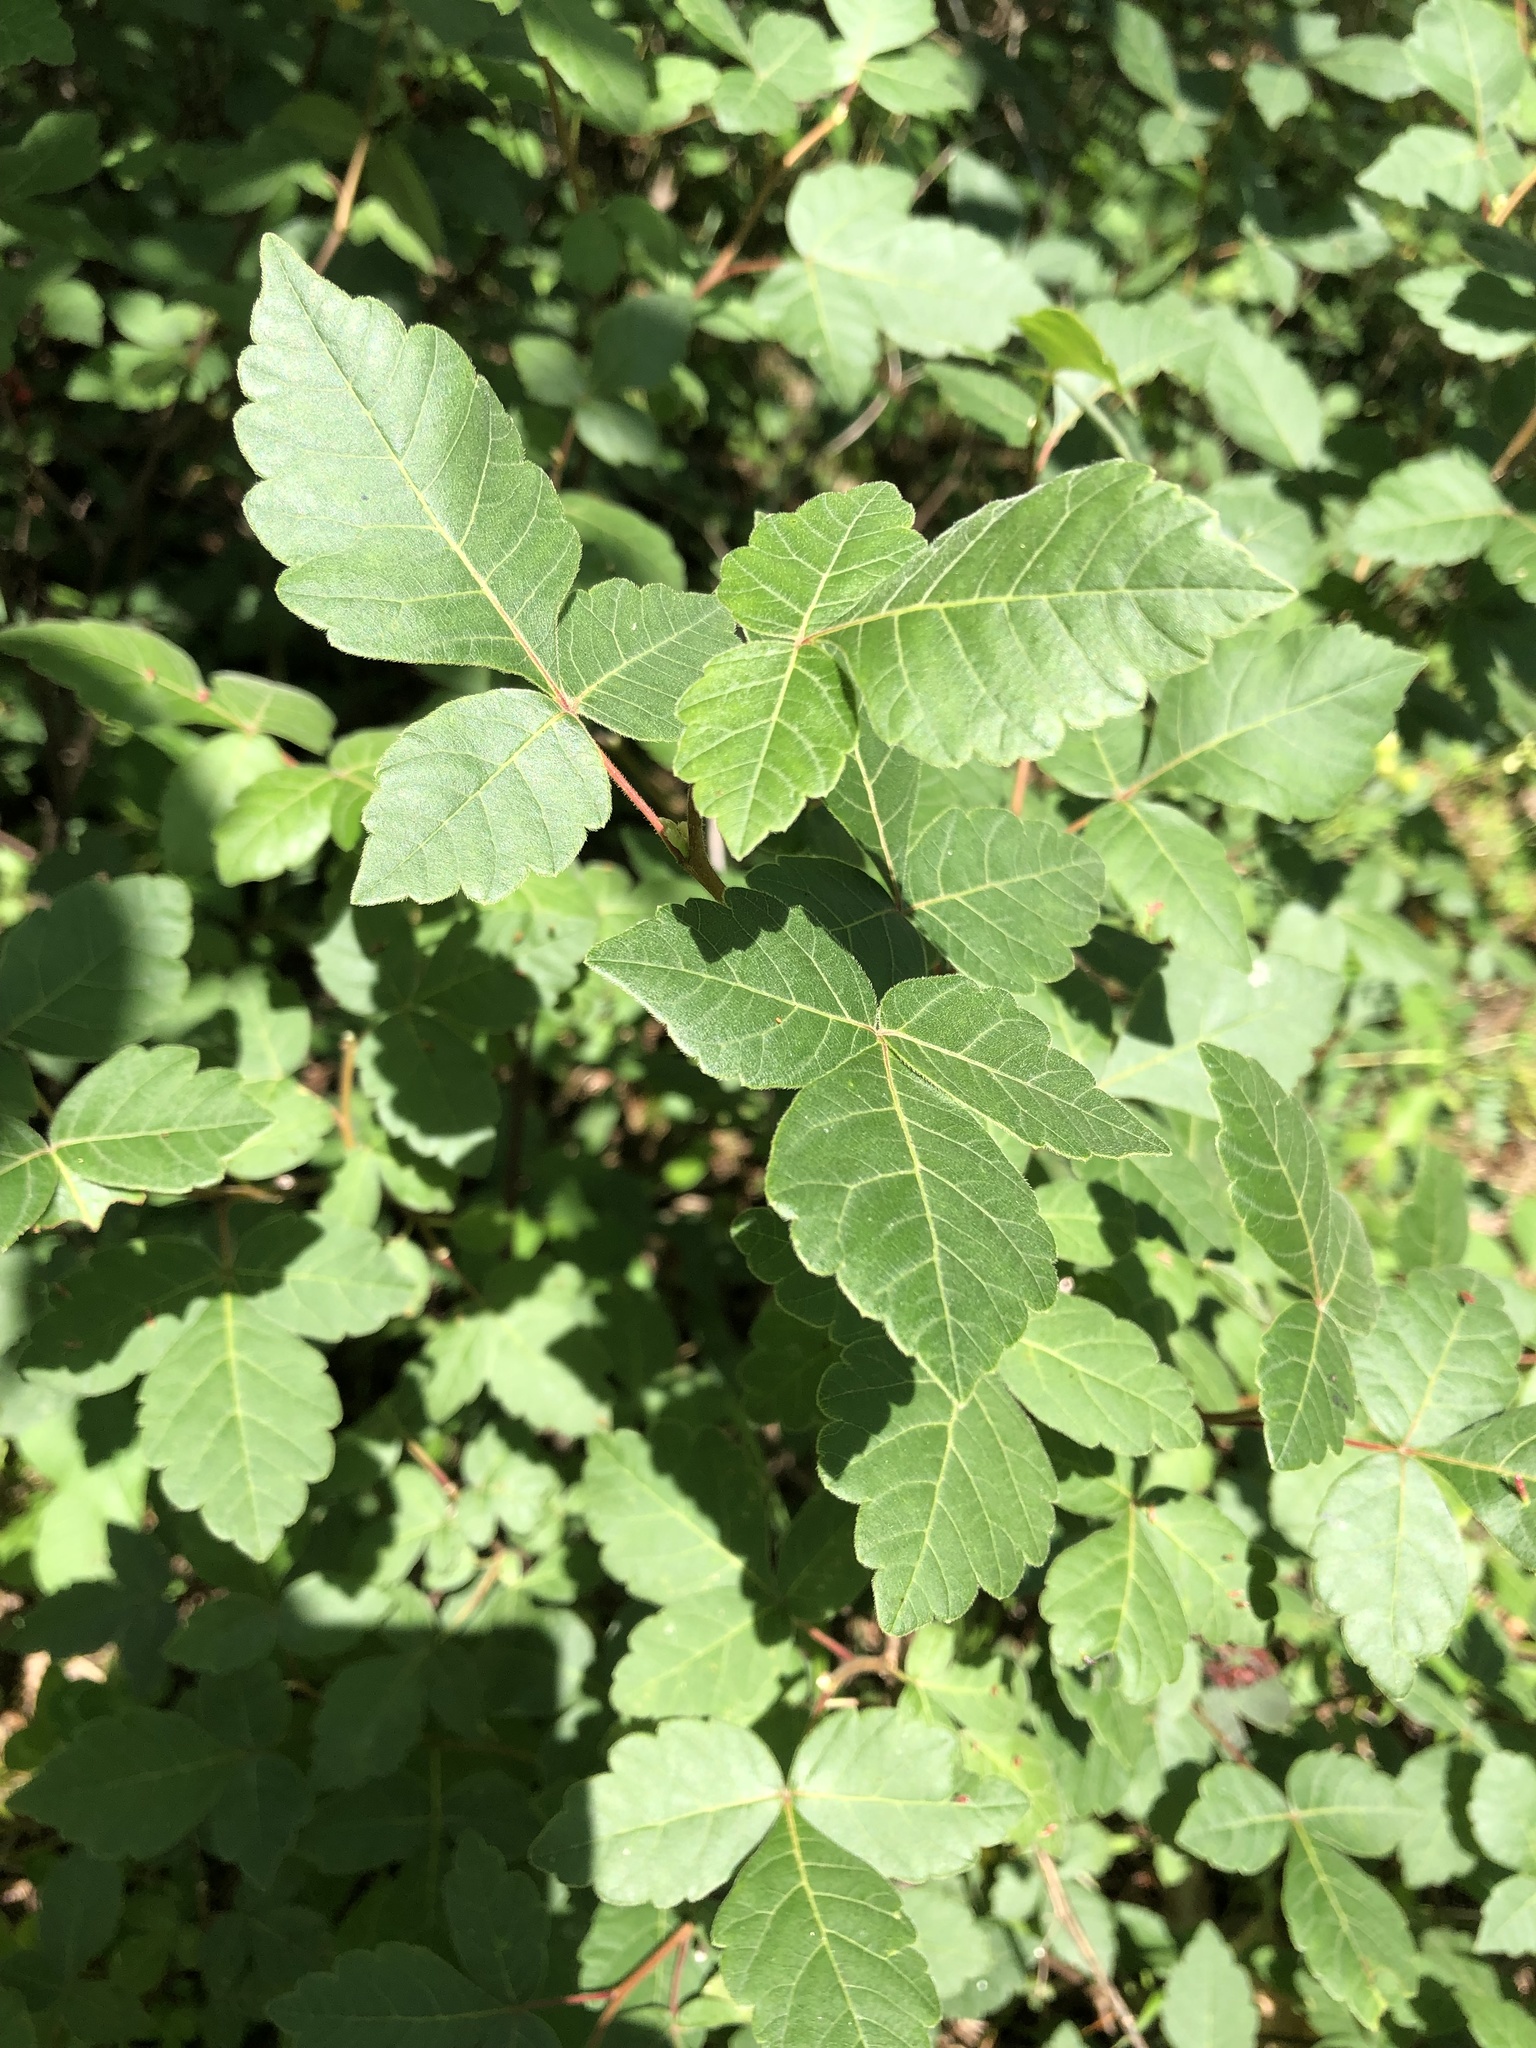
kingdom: Plantae
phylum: Tracheophyta
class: Magnoliopsida
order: Sapindales
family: Anacardiaceae
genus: Rhus
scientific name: Rhus aromatica
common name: Aromatic sumac
